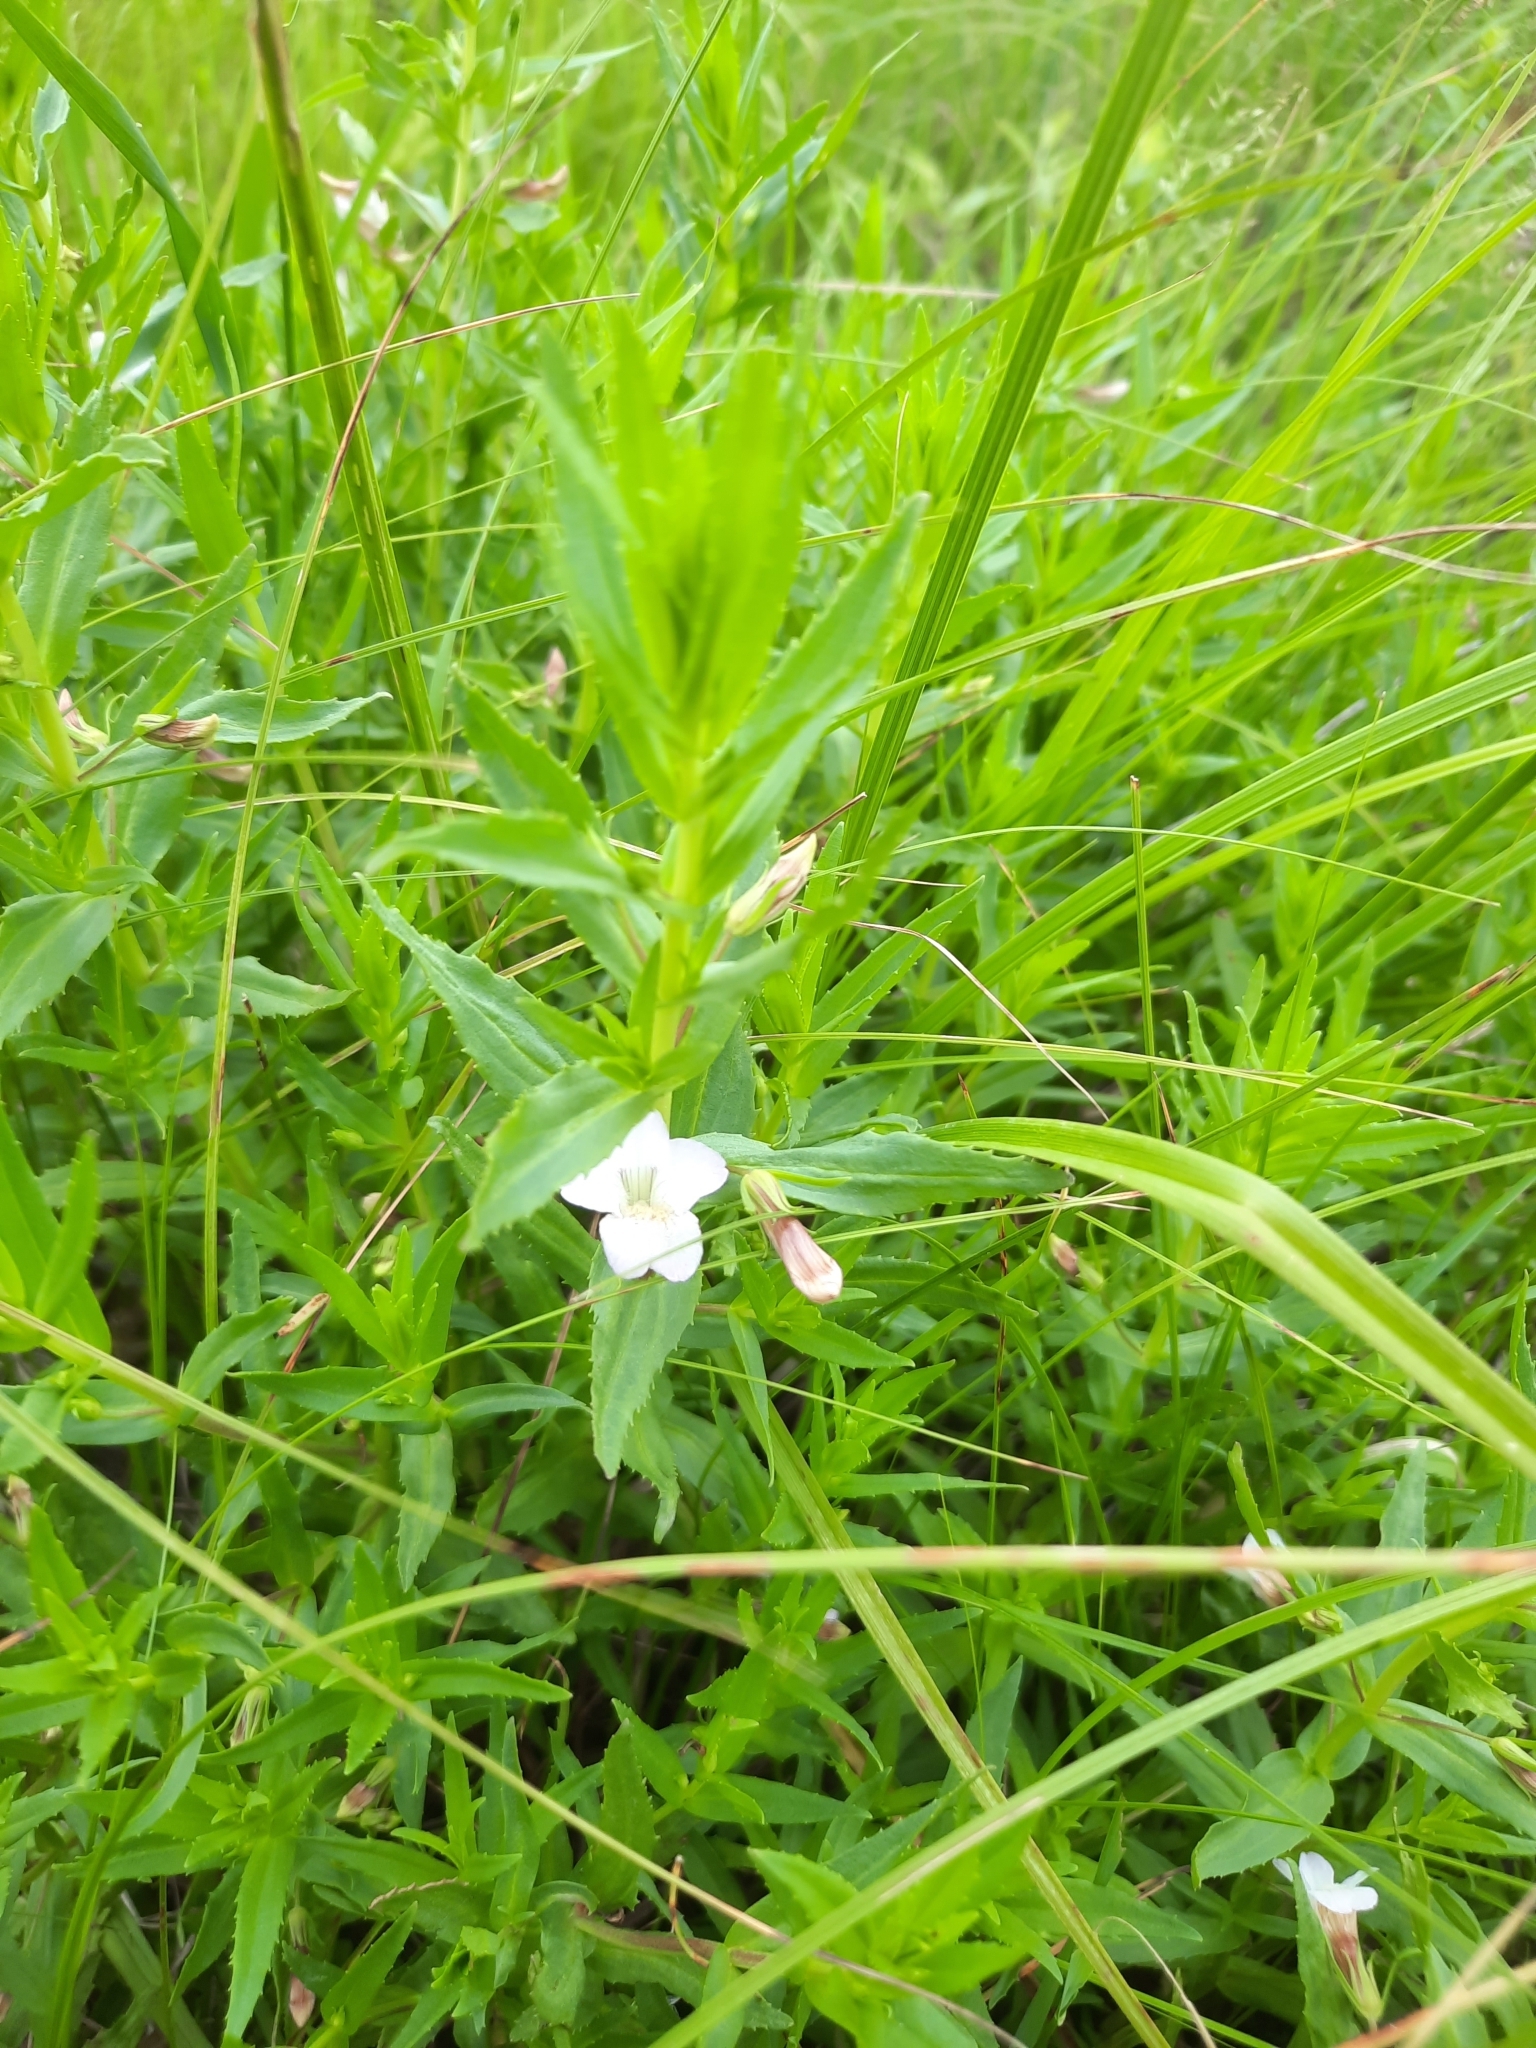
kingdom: Plantae
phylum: Tracheophyta
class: Magnoliopsida
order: Lamiales
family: Plantaginaceae
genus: Gratiola
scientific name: Gratiola officinalis
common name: Gratiola
